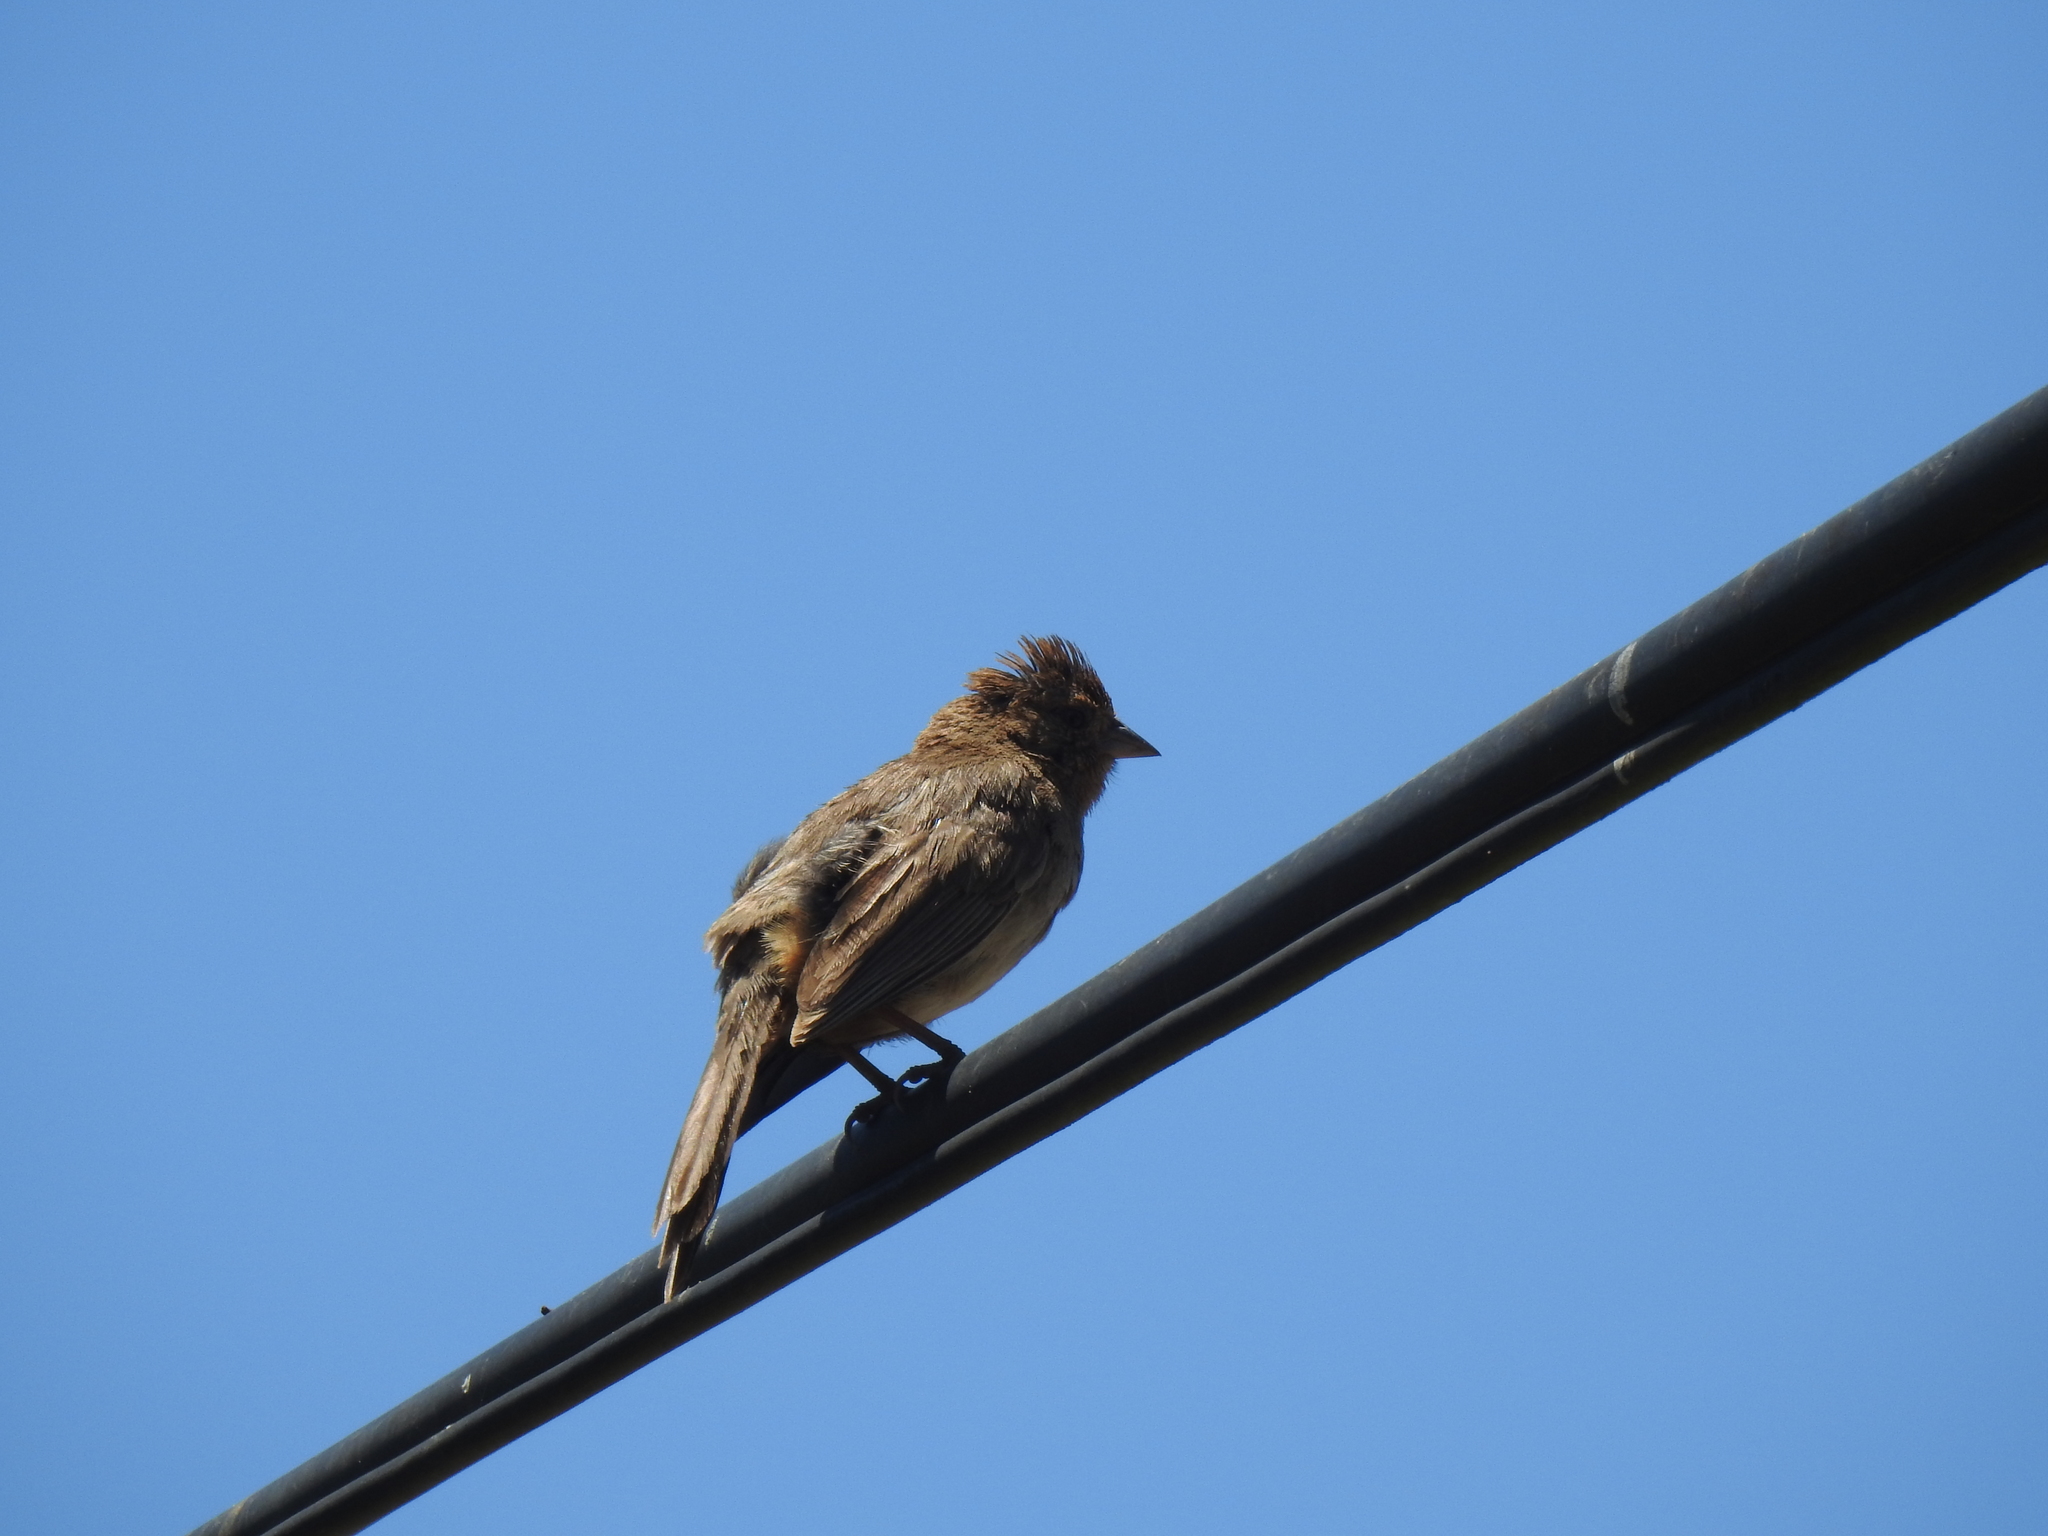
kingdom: Animalia
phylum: Chordata
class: Aves
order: Passeriformes
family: Passerellidae
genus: Melozone
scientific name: Melozone crissalis
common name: California towhee
